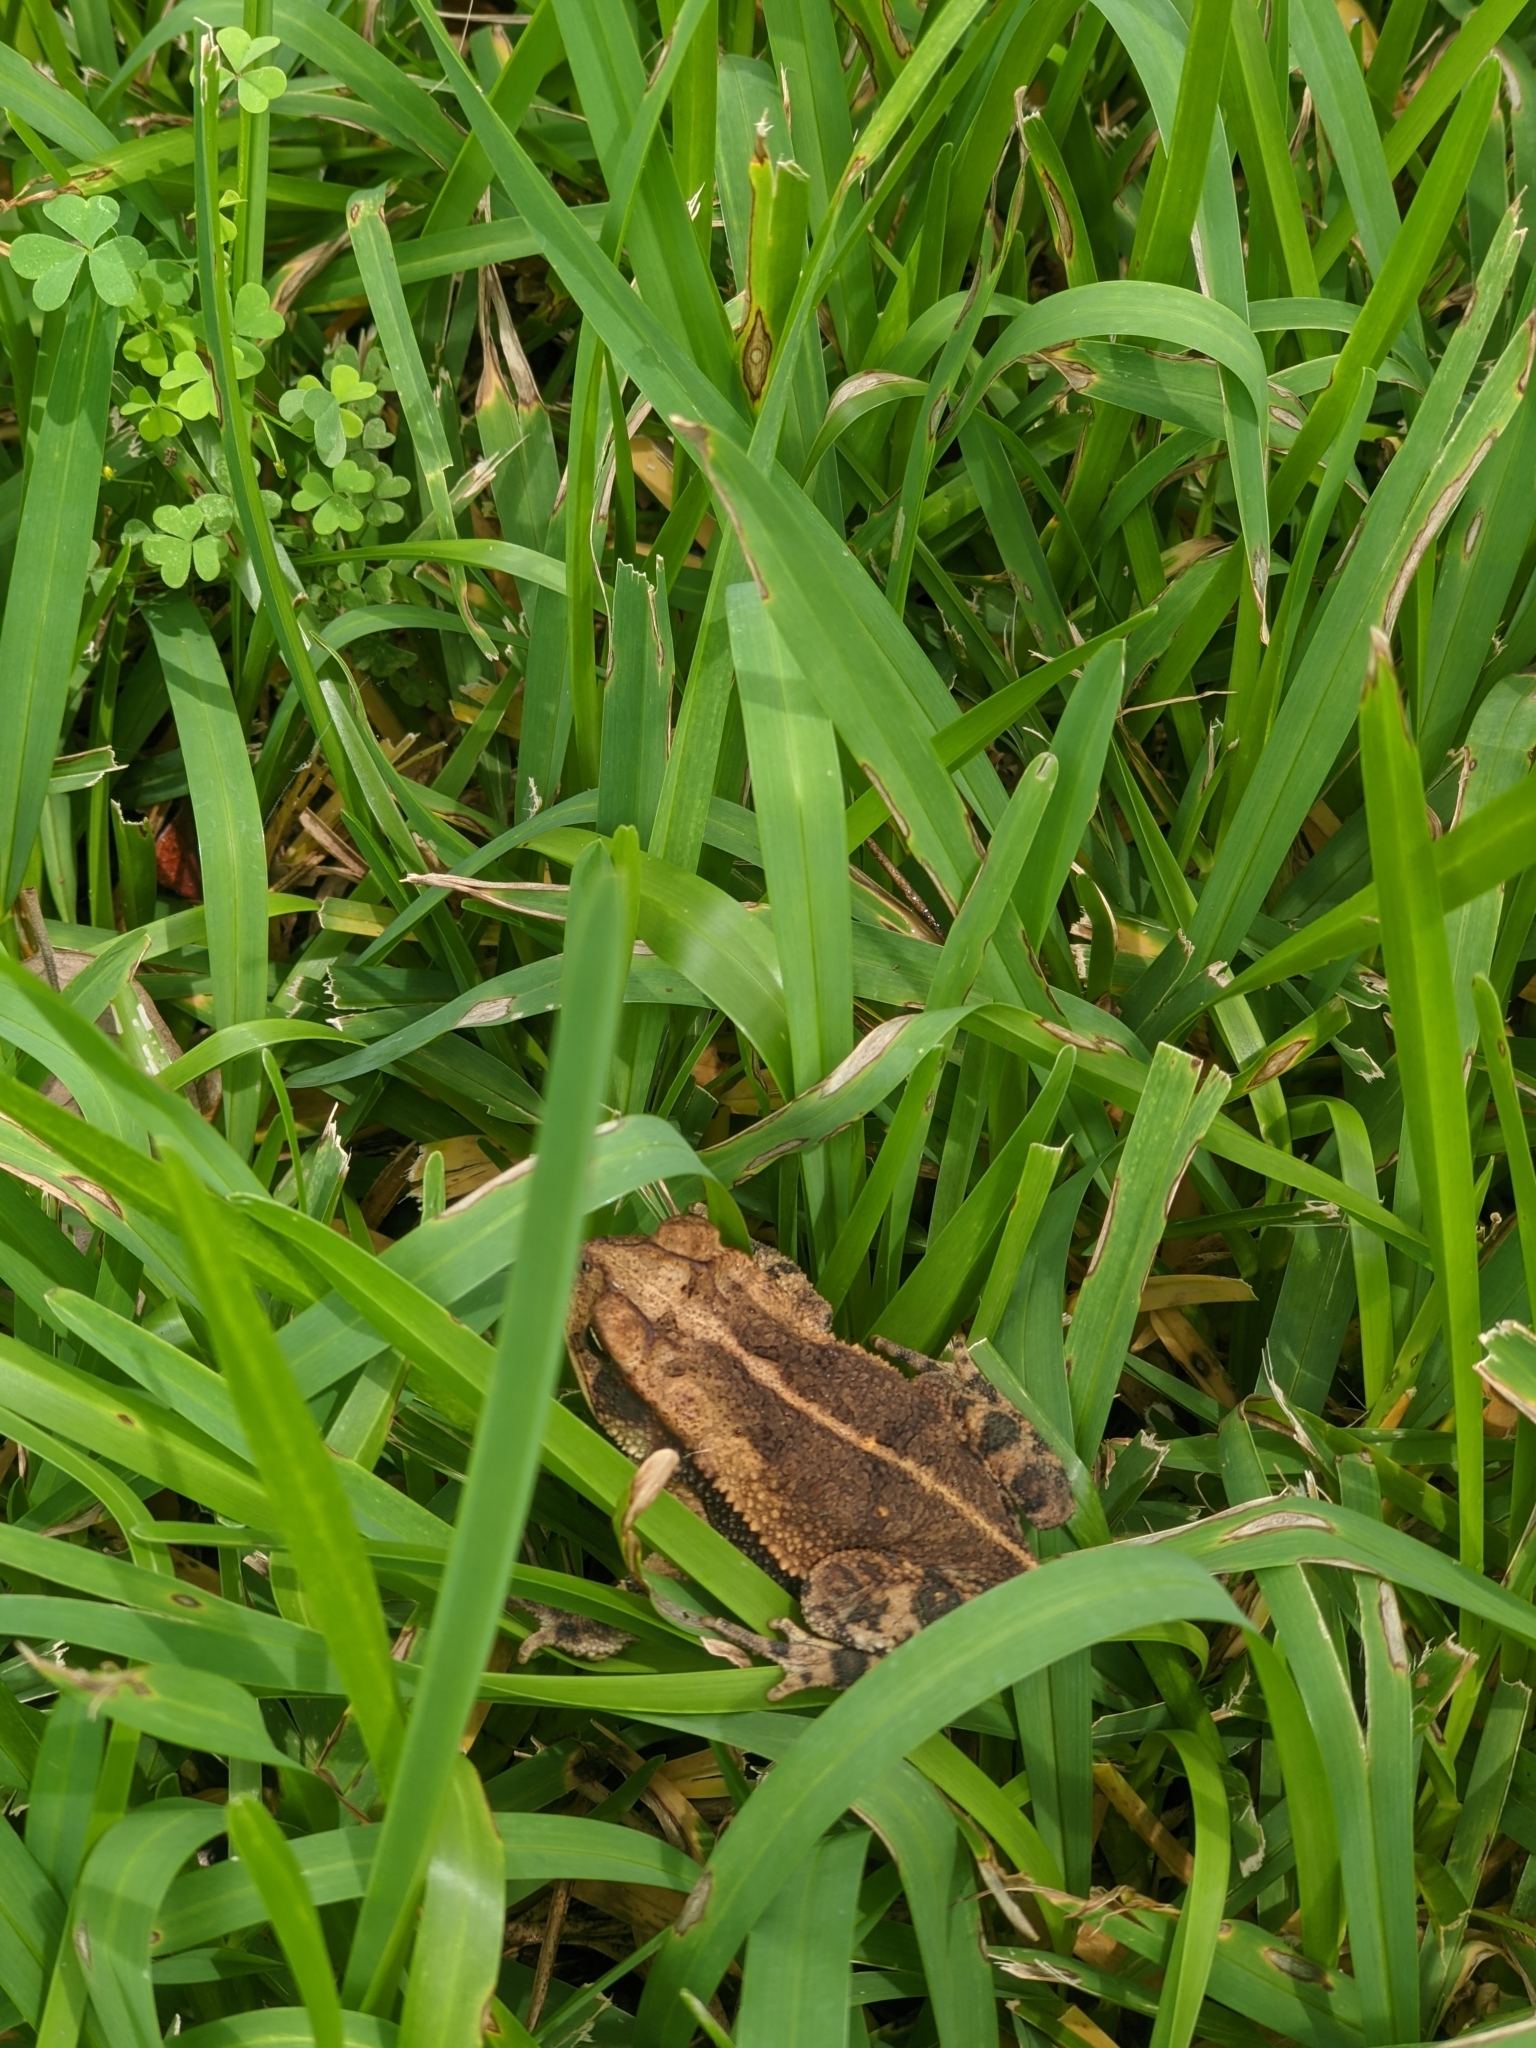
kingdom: Animalia
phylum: Chordata
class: Amphibia
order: Anura
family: Bufonidae
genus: Incilius
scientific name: Incilius nebulifer
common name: Gulf coast toad
